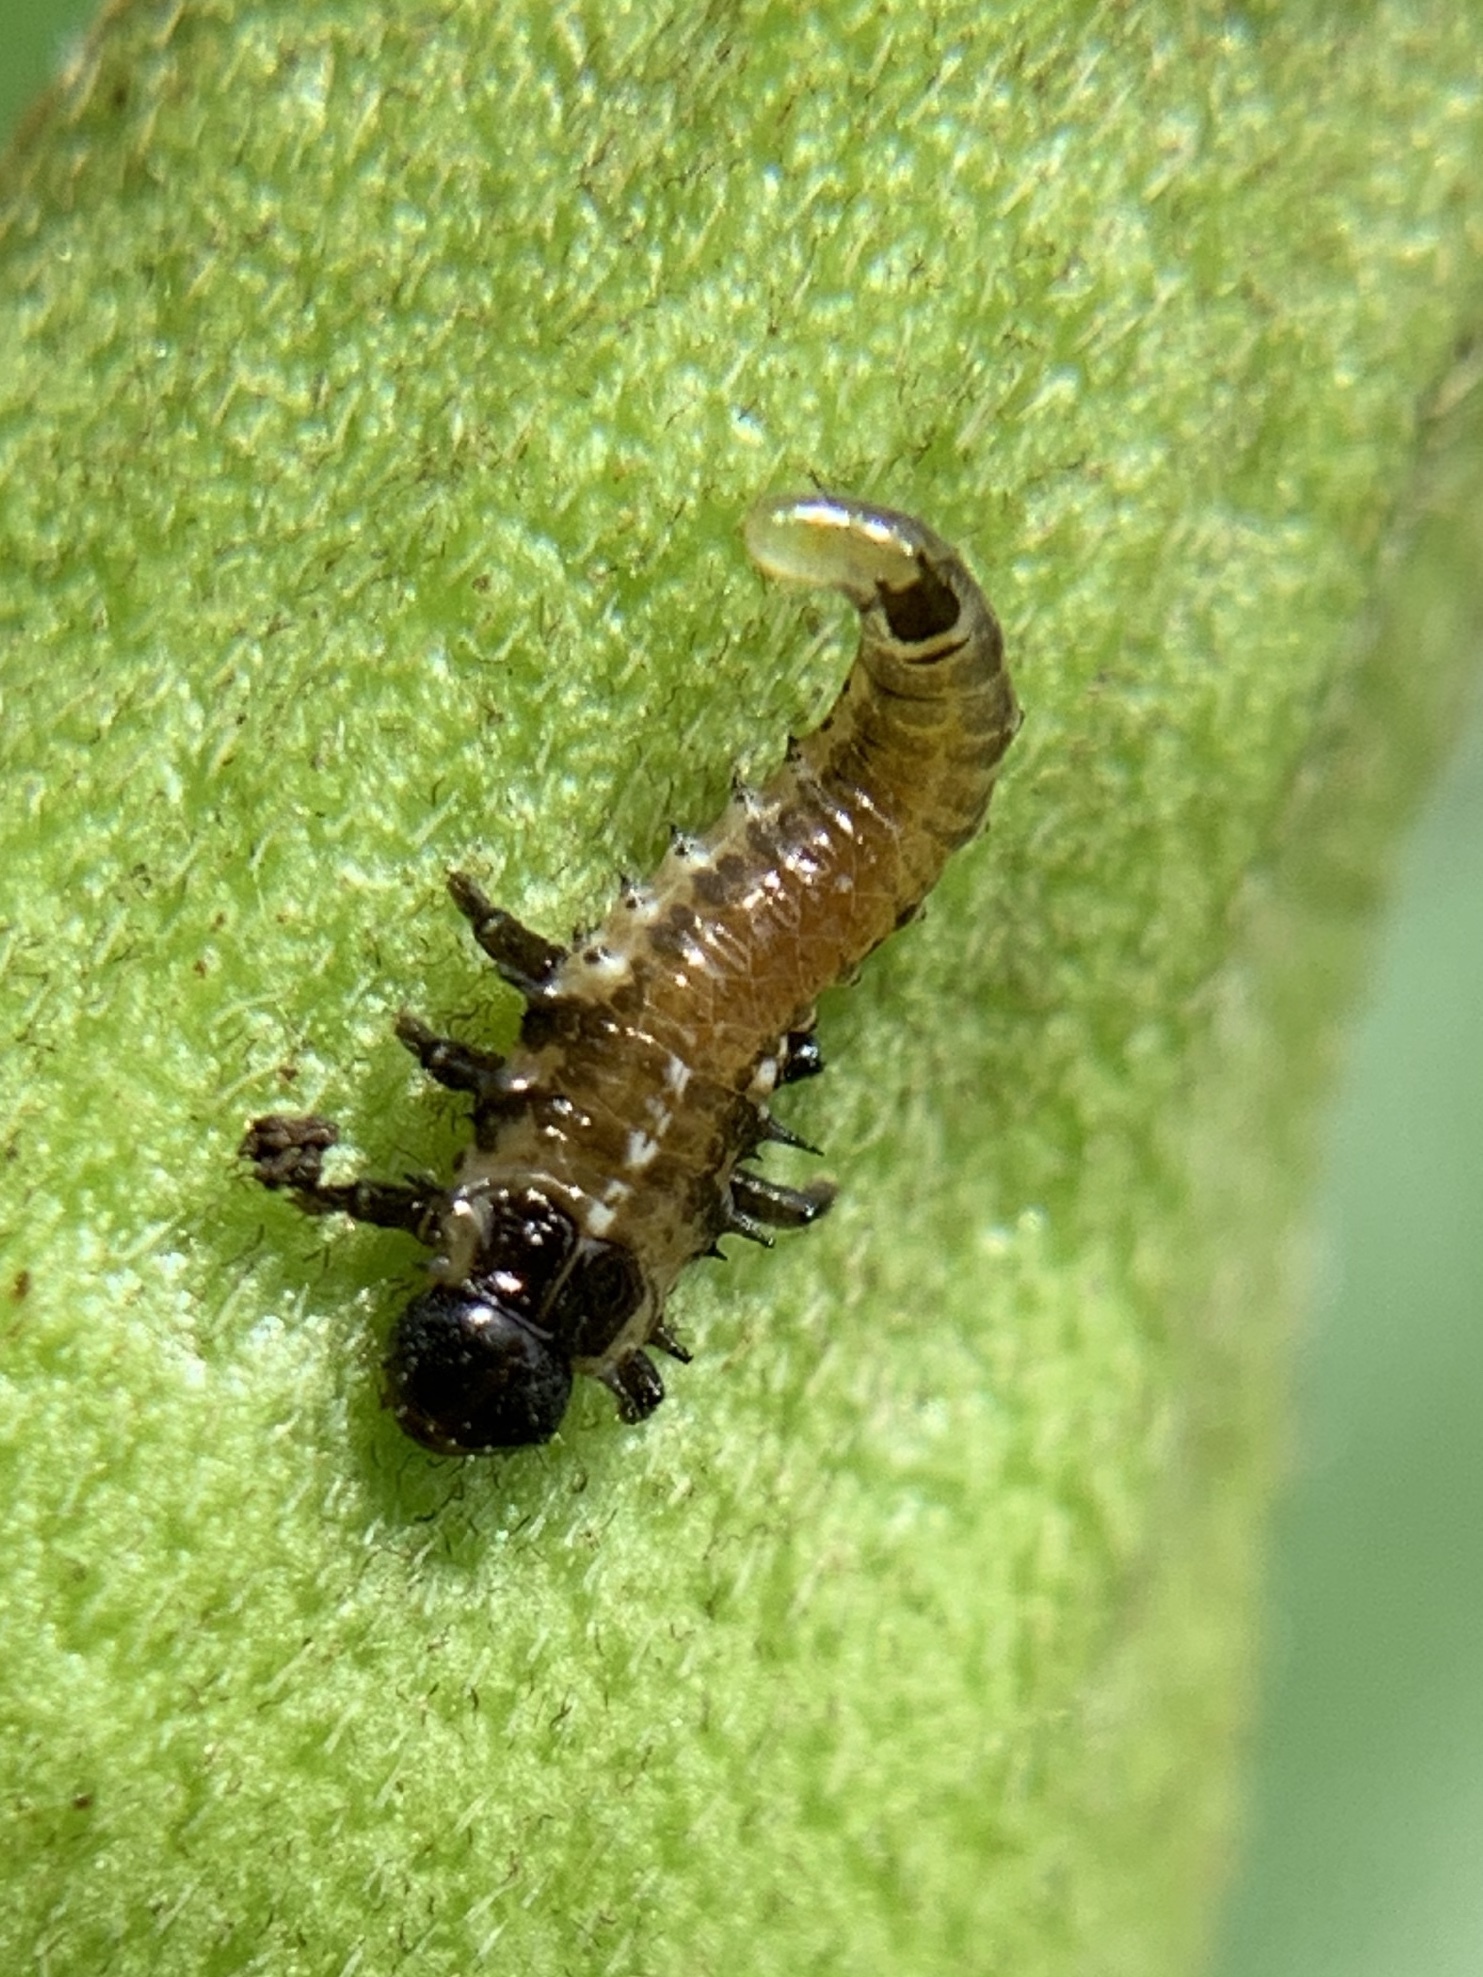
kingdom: Animalia
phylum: Arthropoda
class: Insecta
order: Coleoptera
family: Chrysomelidae
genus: Eurypepla
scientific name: Eurypepla calochroma
